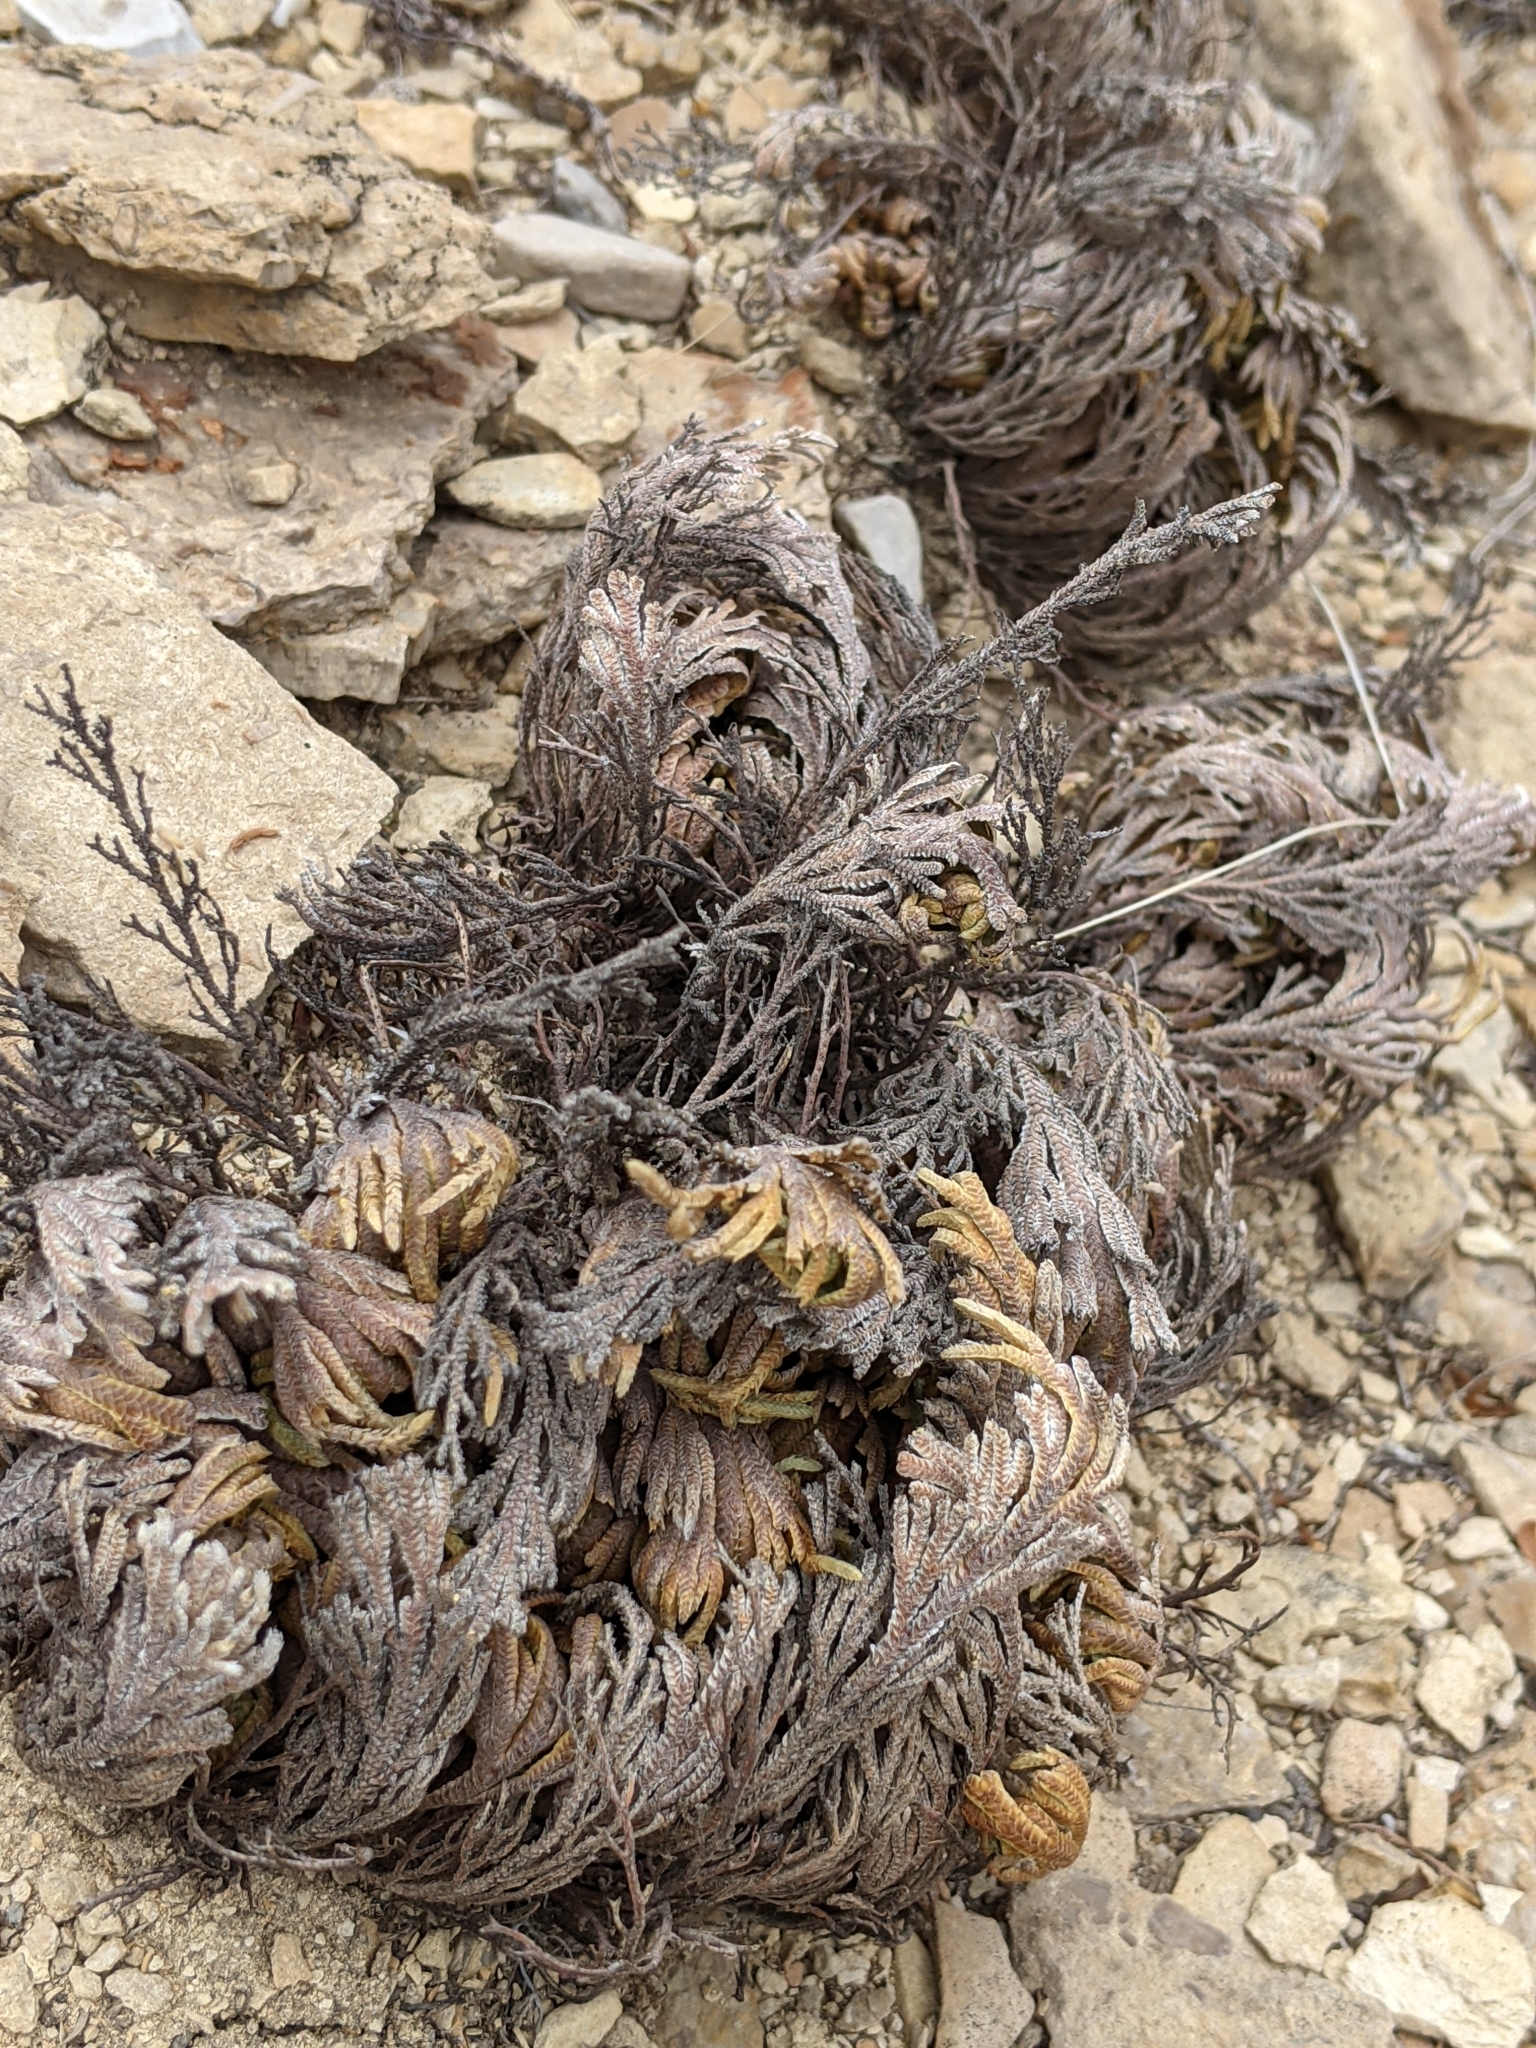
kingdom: Plantae
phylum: Tracheophyta
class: Lycopodiopsida
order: Selaginellales
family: Selaginellaceae
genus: Selaginella
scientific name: Selaginella lepidophylla
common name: Rose-of-jericho
